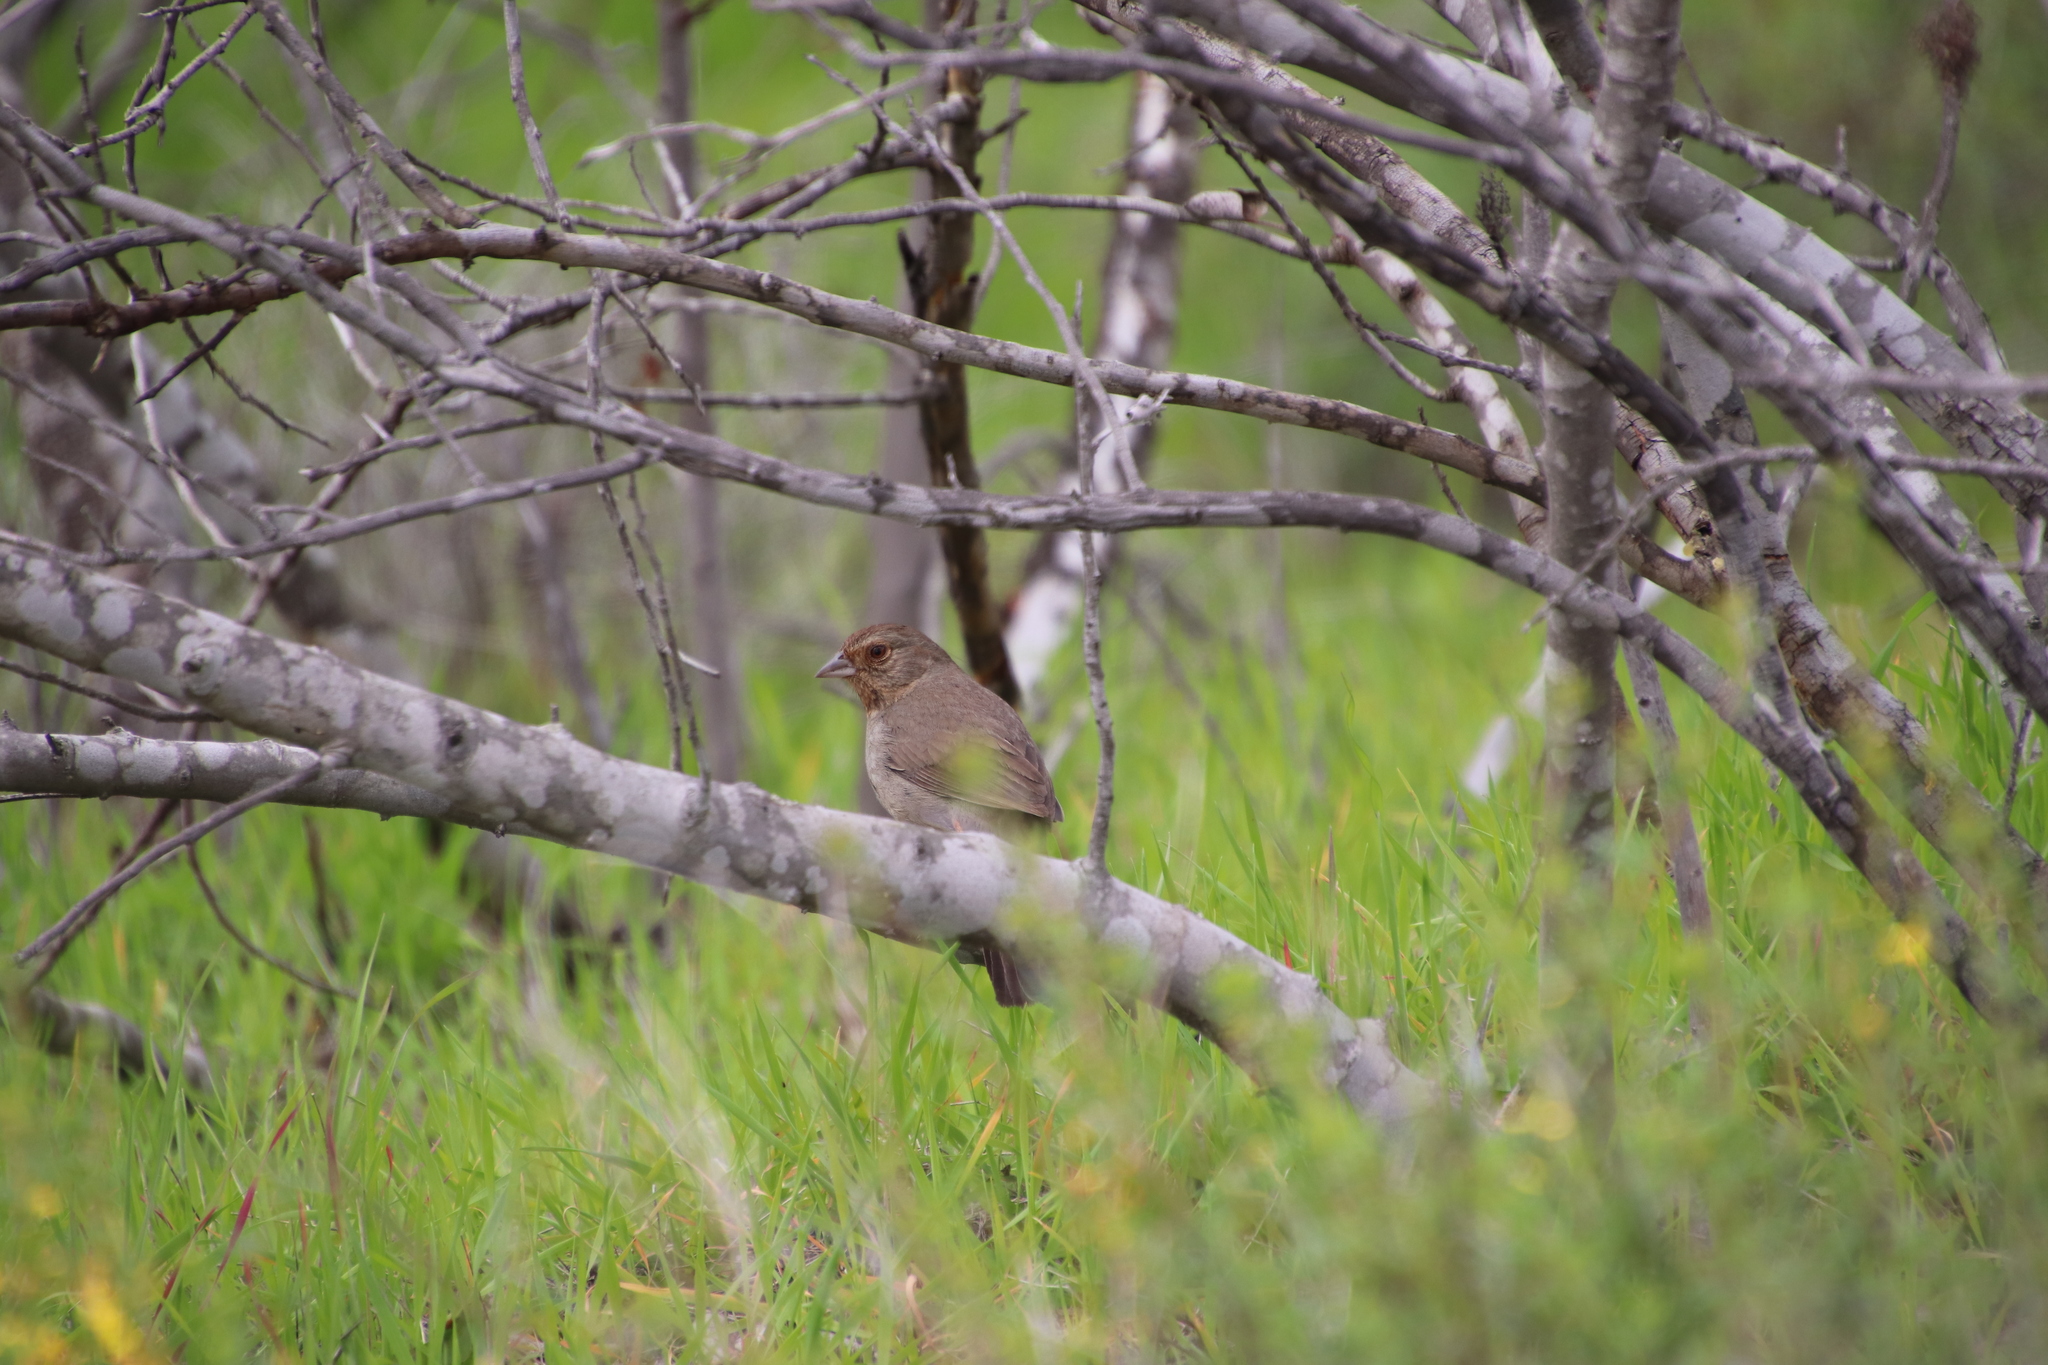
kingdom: Animalia
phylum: Chordata
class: Aves
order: Passeriformes
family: Passerellidae
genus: Melozone
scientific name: Melozone crissalis
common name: California towhee
